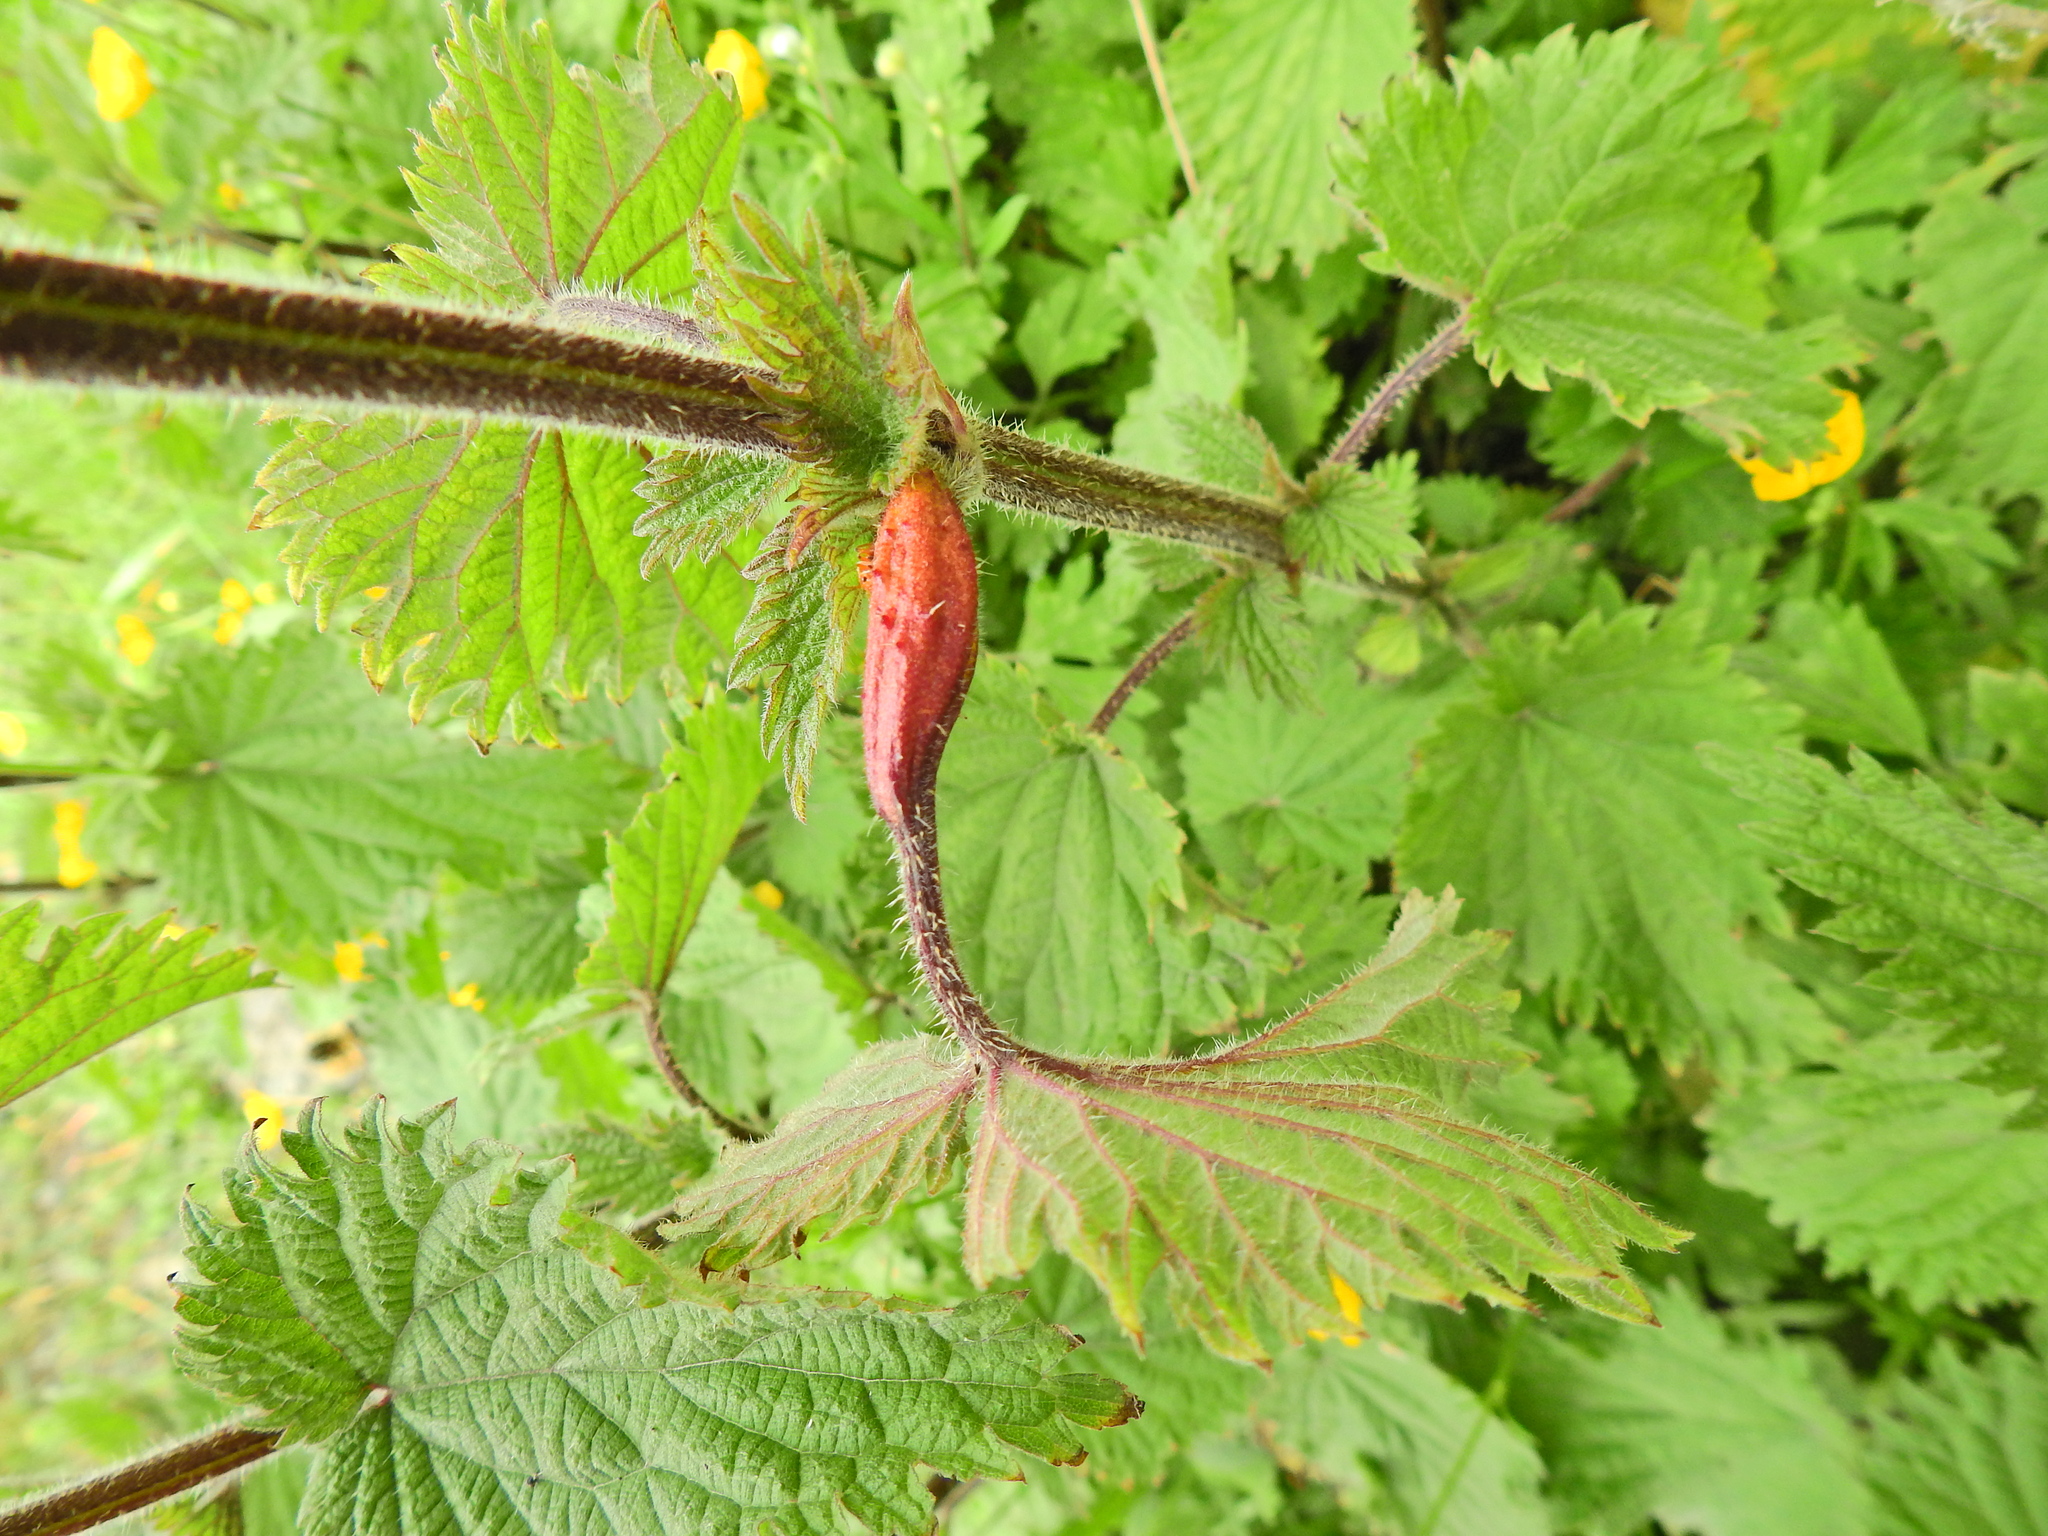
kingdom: Fungi
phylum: Basidiomycota
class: Pucciniomycetes
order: Pucciniales
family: Pucciniaceae
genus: Puccinia
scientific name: Puccinia urticata
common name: Nettle clustercup rust fungus
